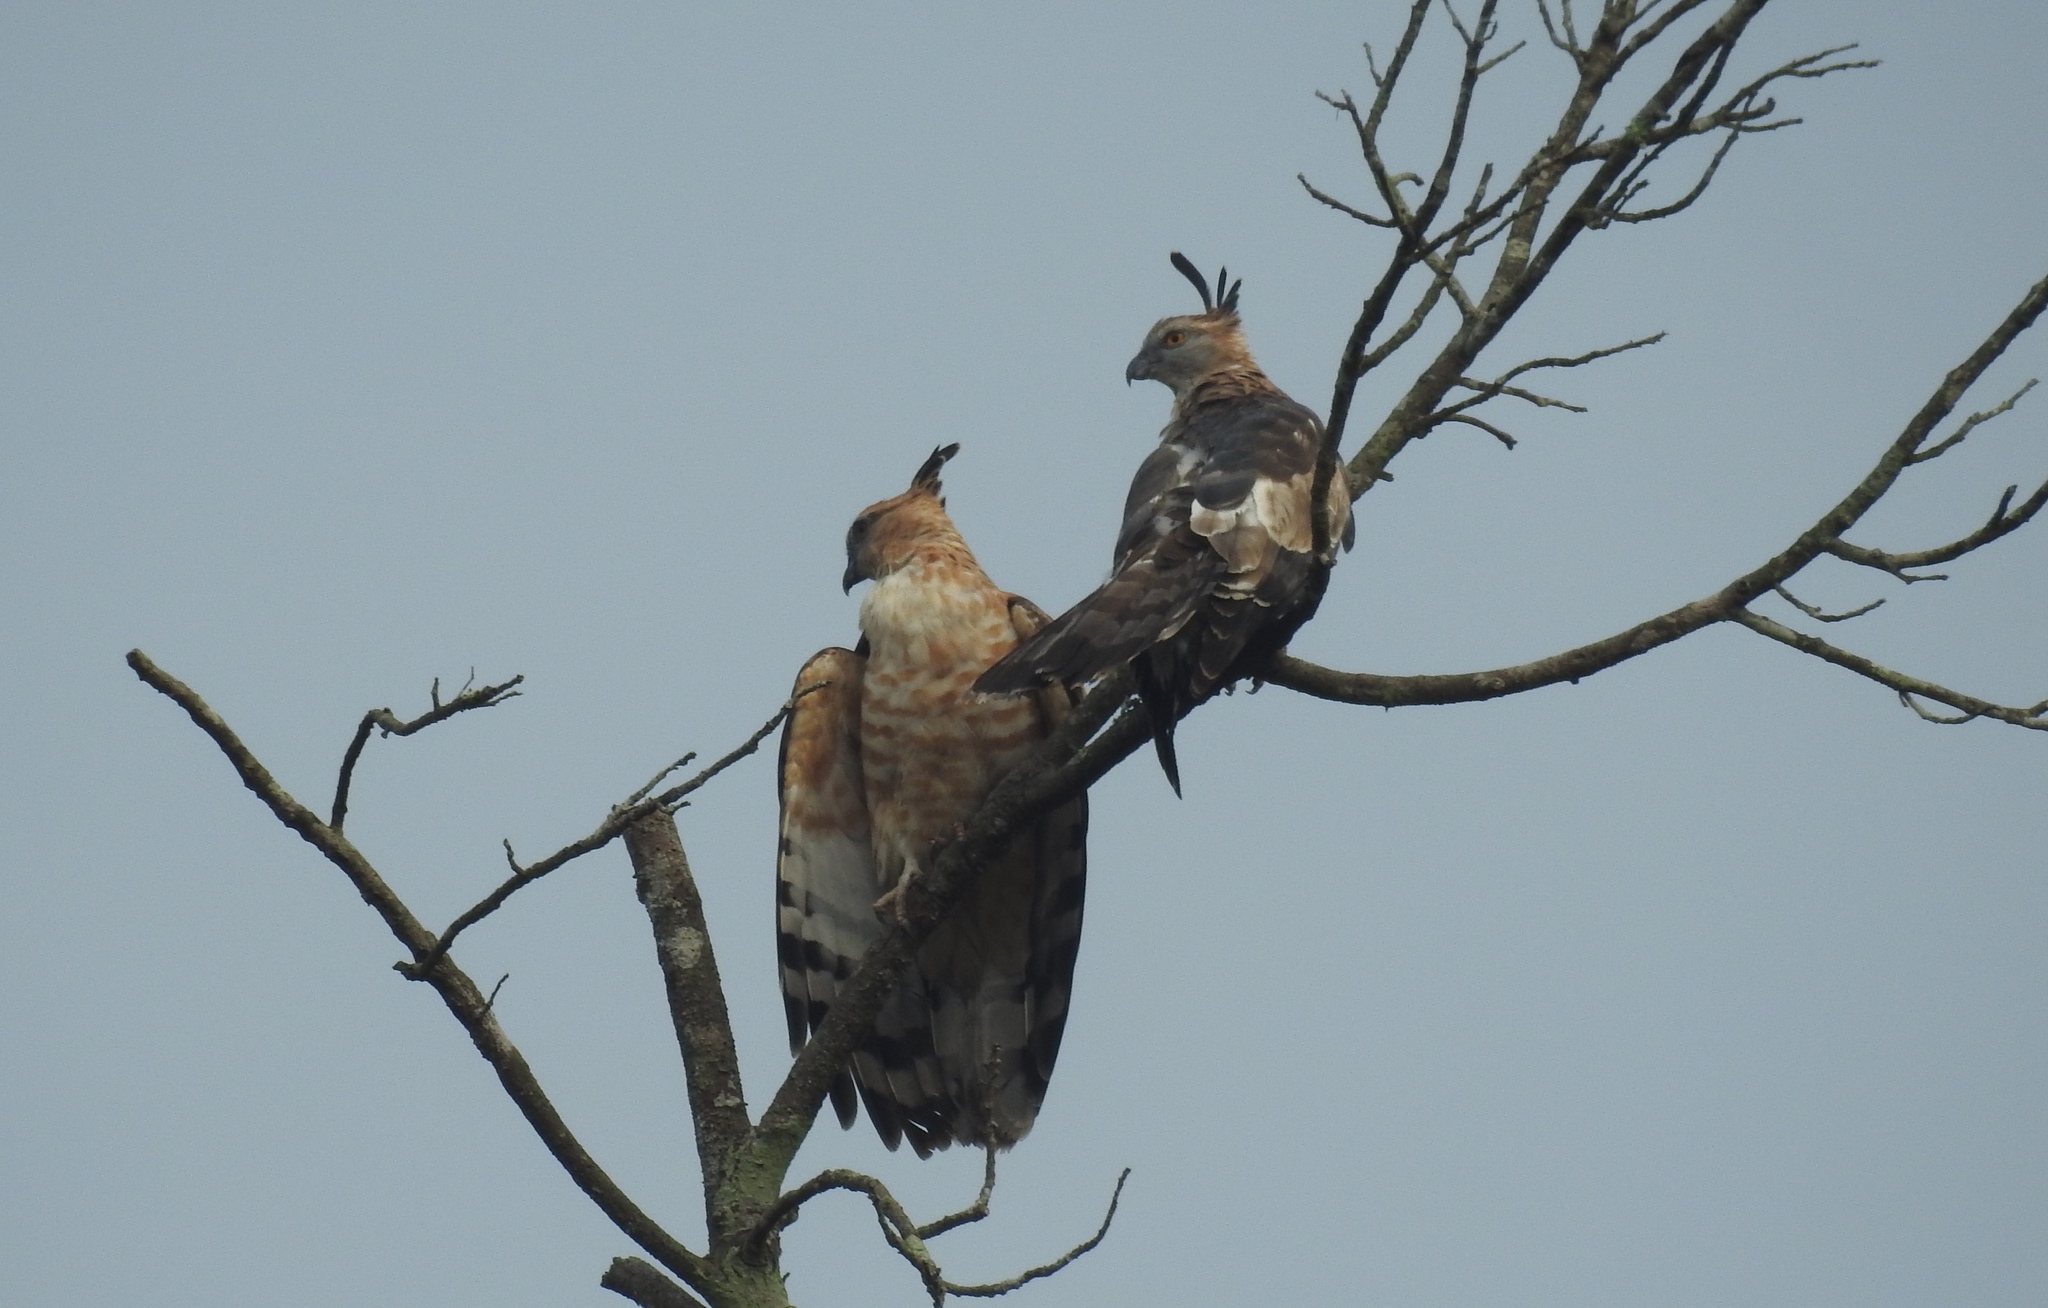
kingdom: Animalia
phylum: Chordata
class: Aves
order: Accipitriformes
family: Accipitridae
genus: Aviceda
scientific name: Aviceda jerdoni
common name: Jerdon's baza
